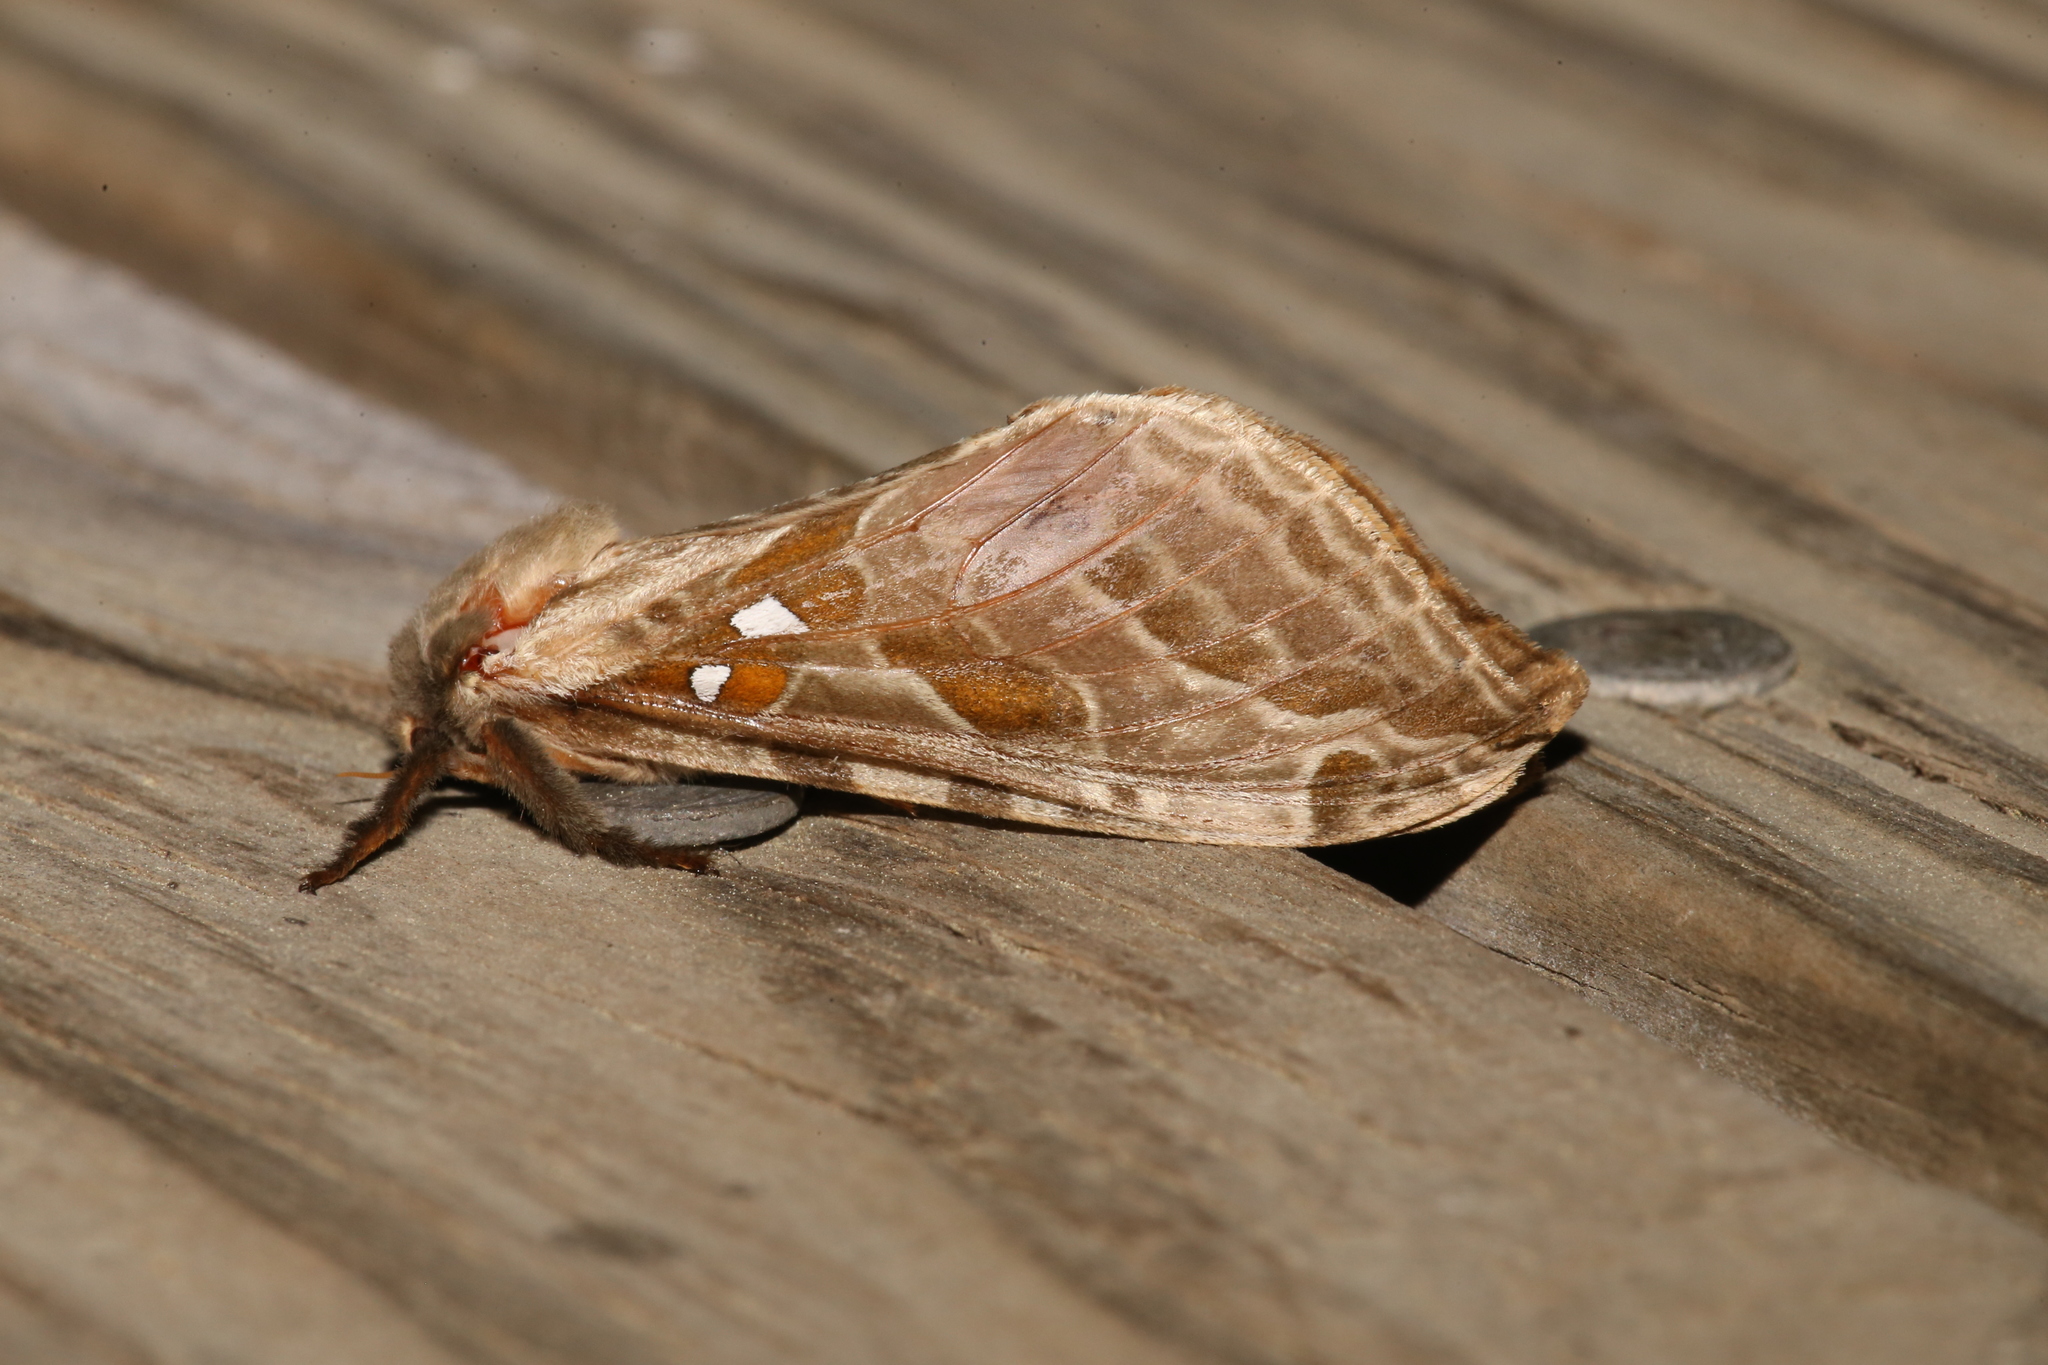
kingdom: Animalia
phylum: Arthropoda
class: Insecta
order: Lepidoptera
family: Hepialidae
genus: Sthenopis
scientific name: Sthenopis argenteomaculatus
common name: Silver-spotted ghost moth
